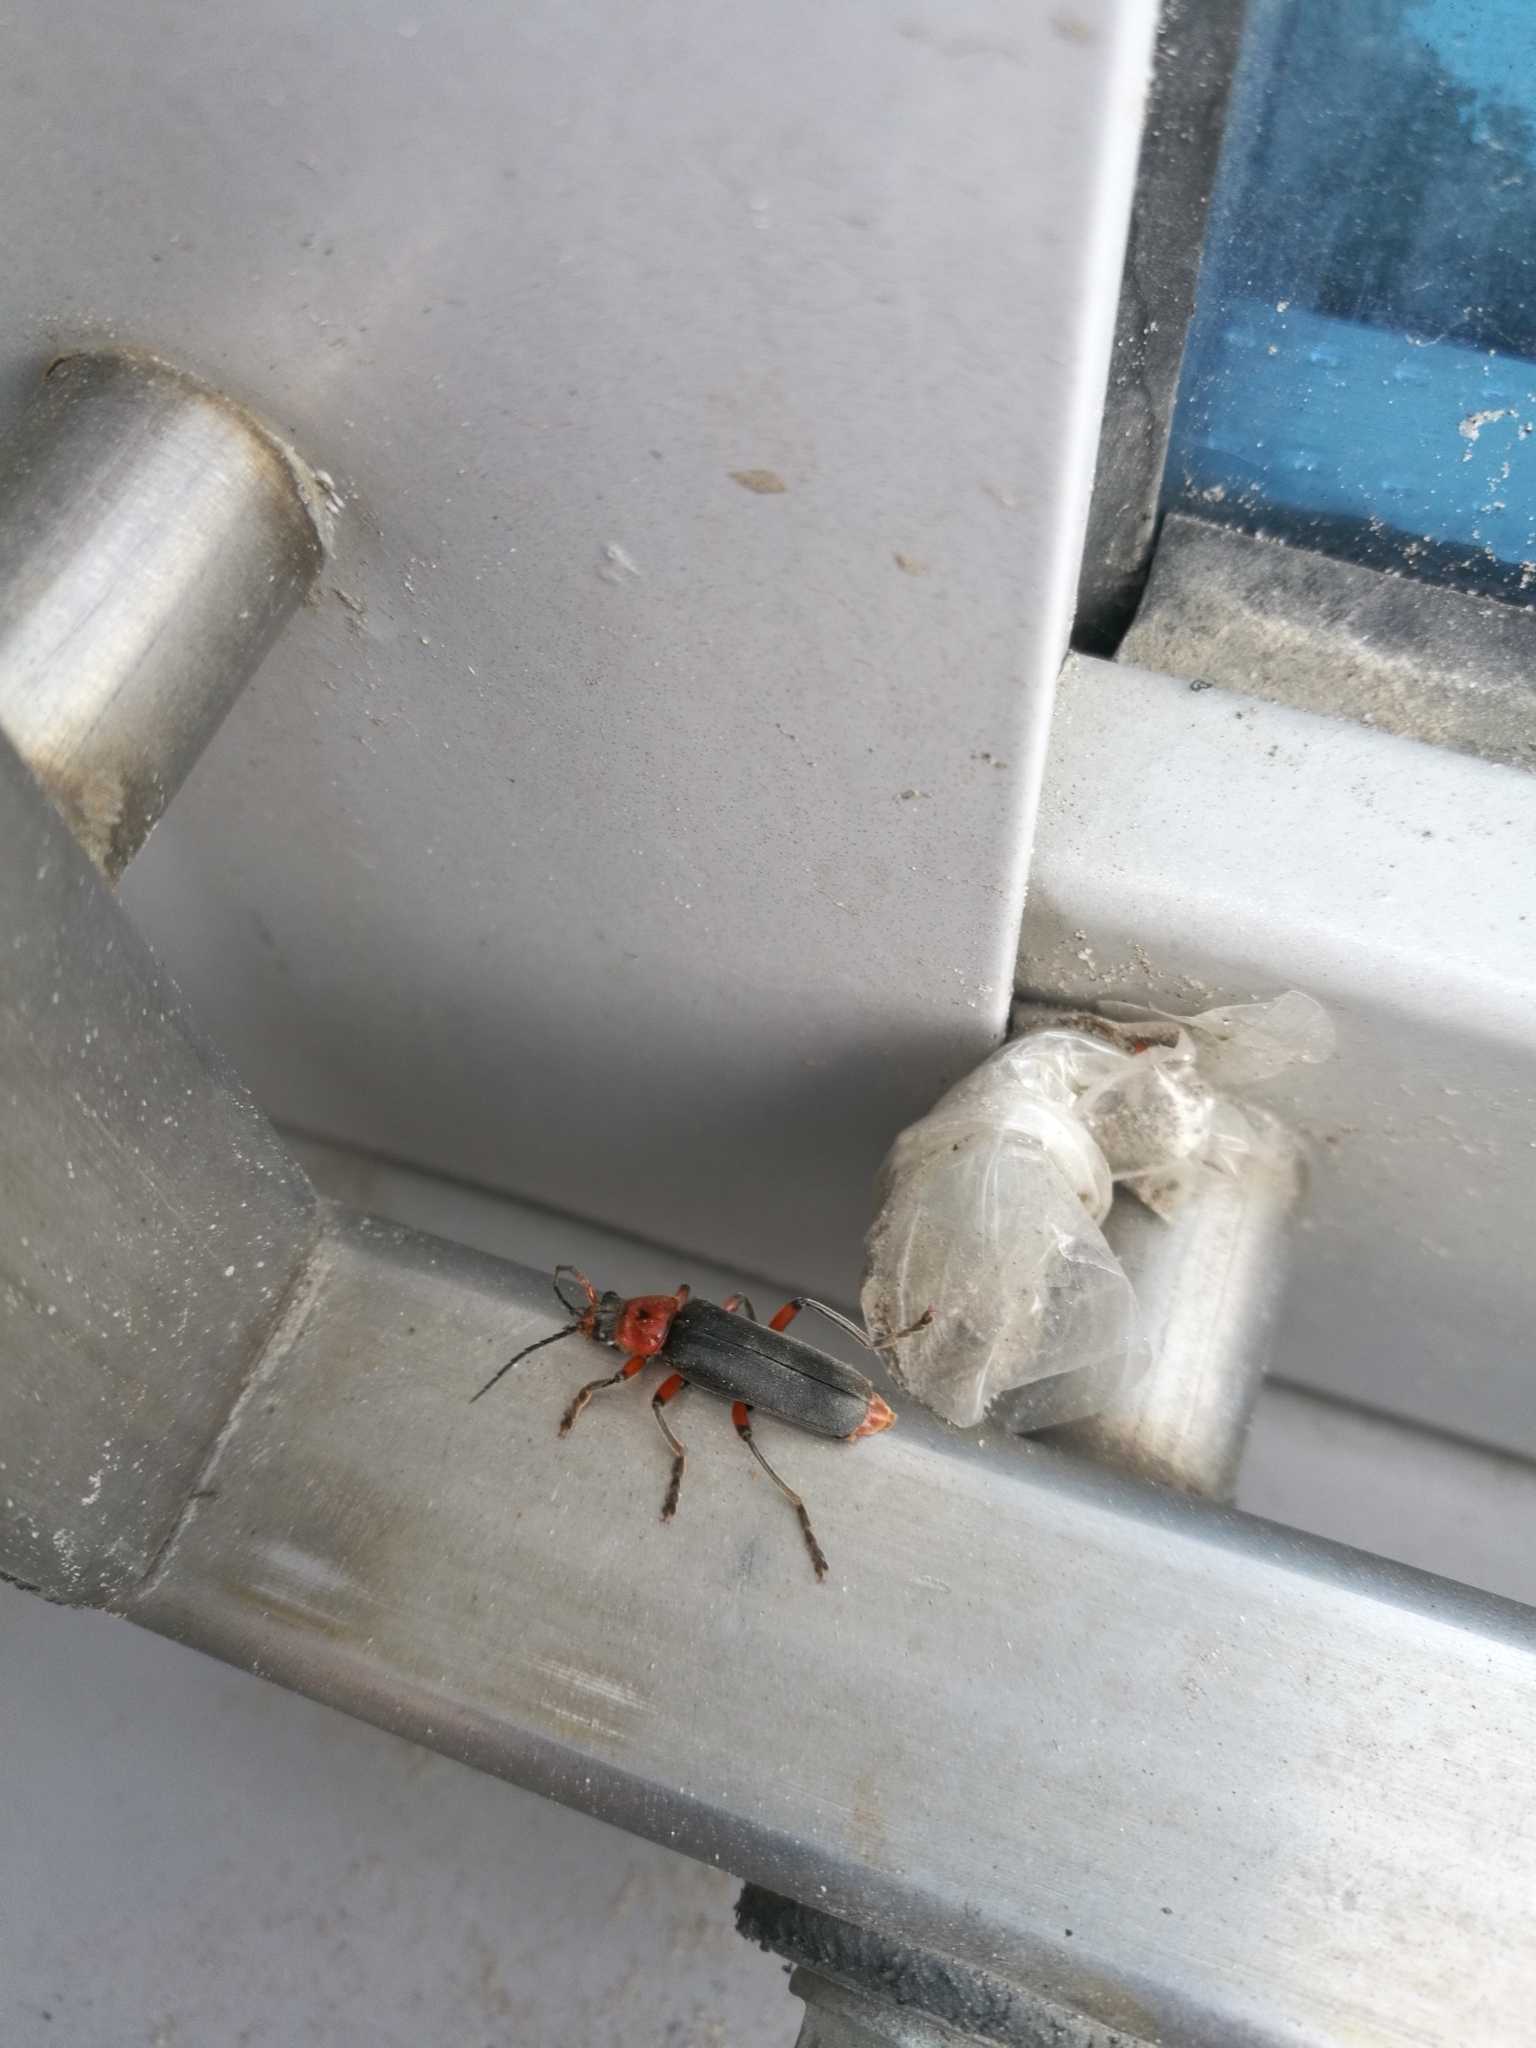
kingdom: Animalia
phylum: Arthropoda
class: Insecta
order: Coleoptera
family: Cantharidae
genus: Cantharis
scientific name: Cantharis rustica
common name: Soldier beetle
